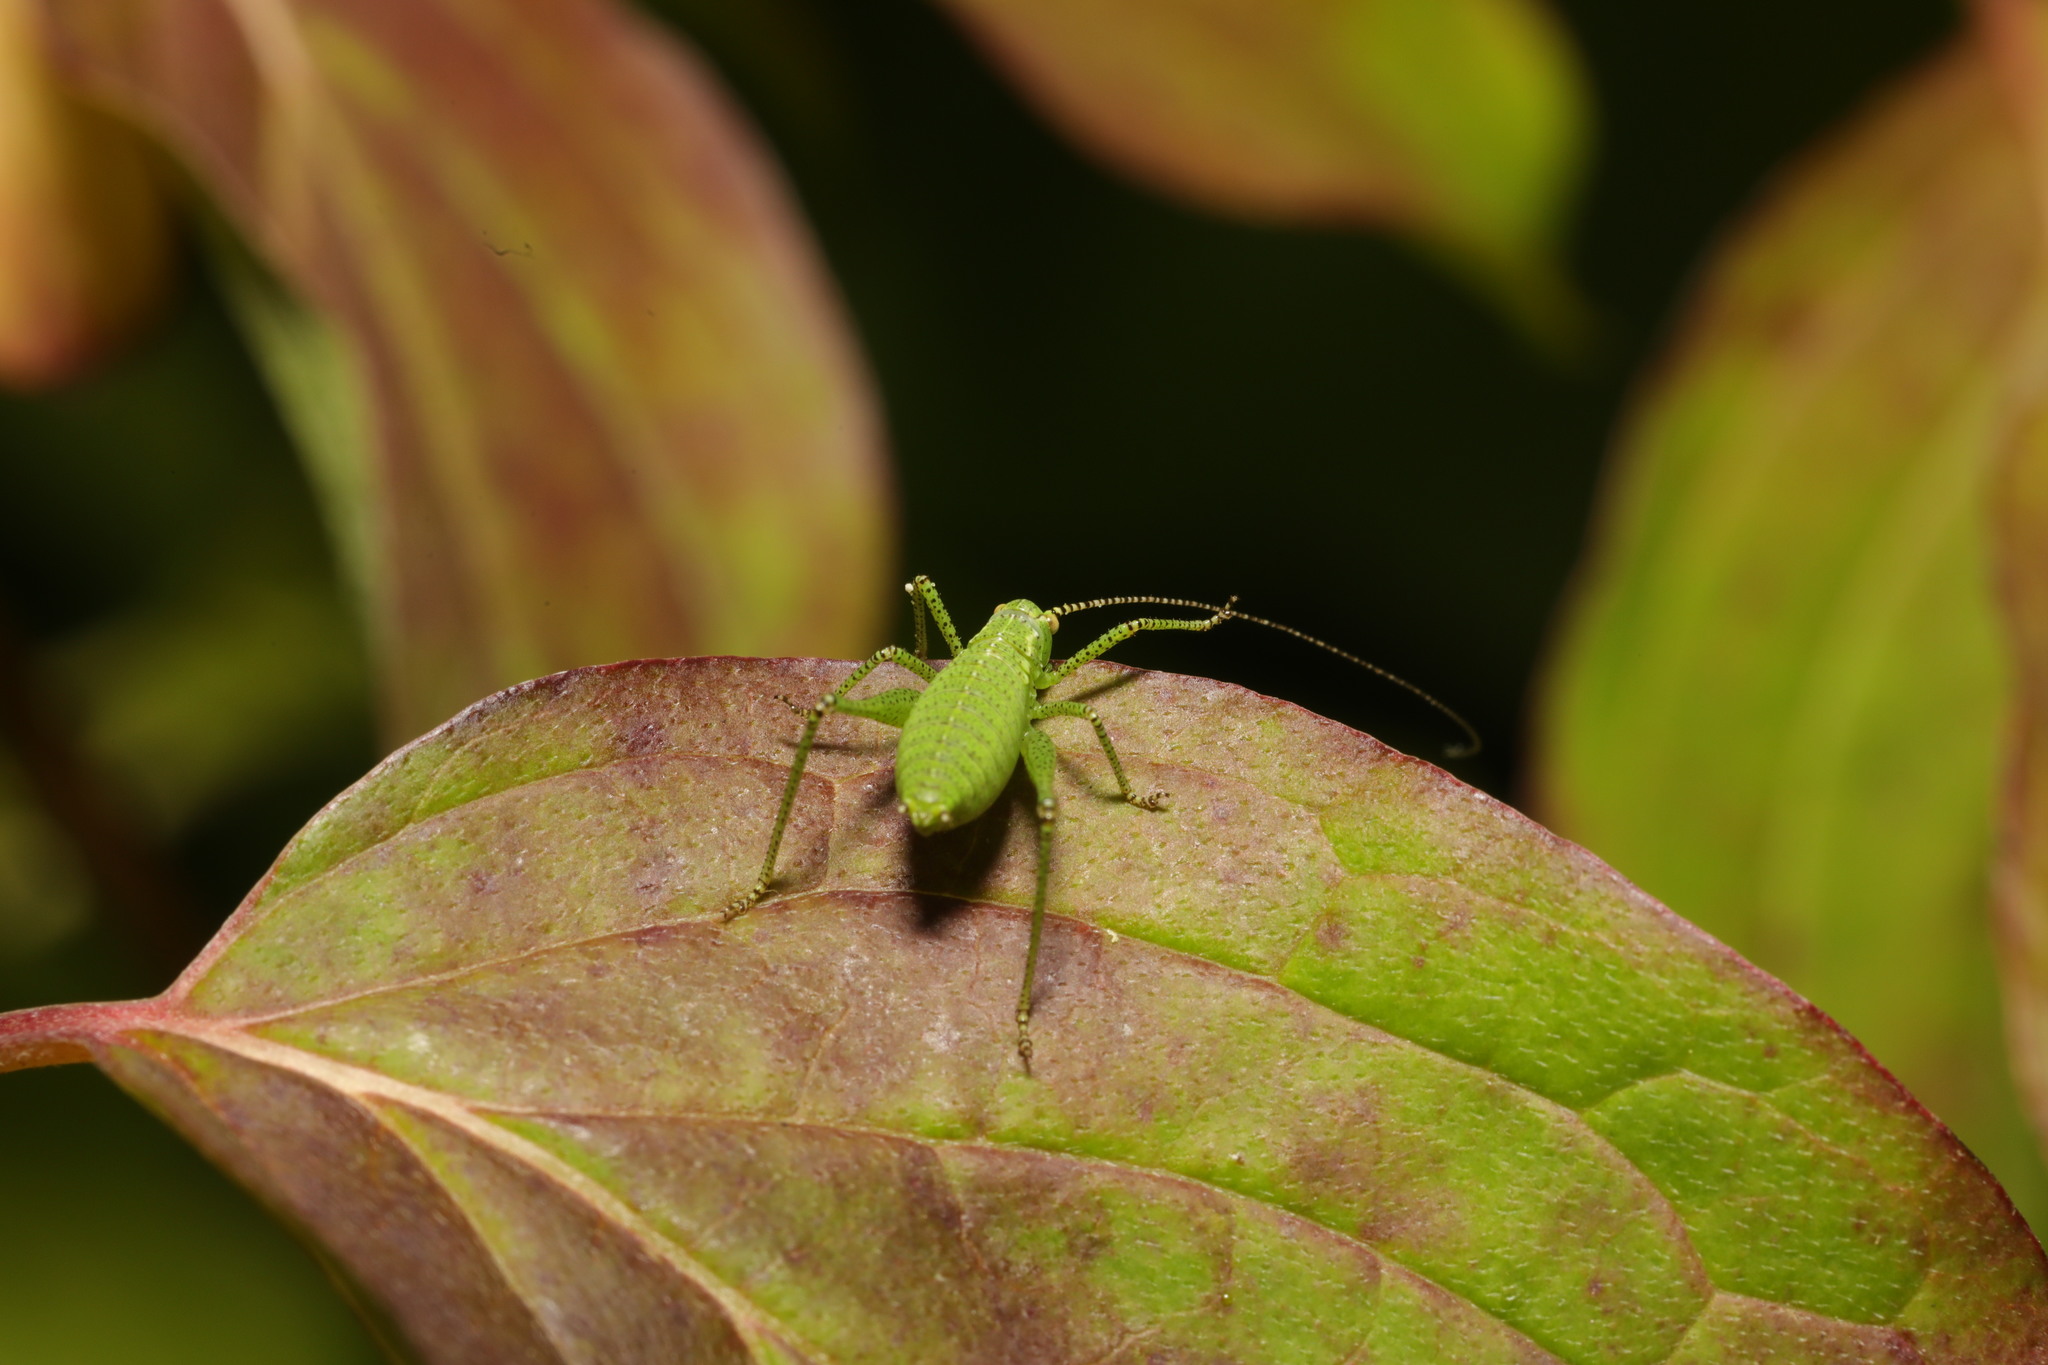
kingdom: Animalia
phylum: Arthropoda
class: Insecta
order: Orthoptera
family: Tettigoniidae
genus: Leptophyes
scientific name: Leptophyes punctatissima
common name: Speckled bush-cricket
